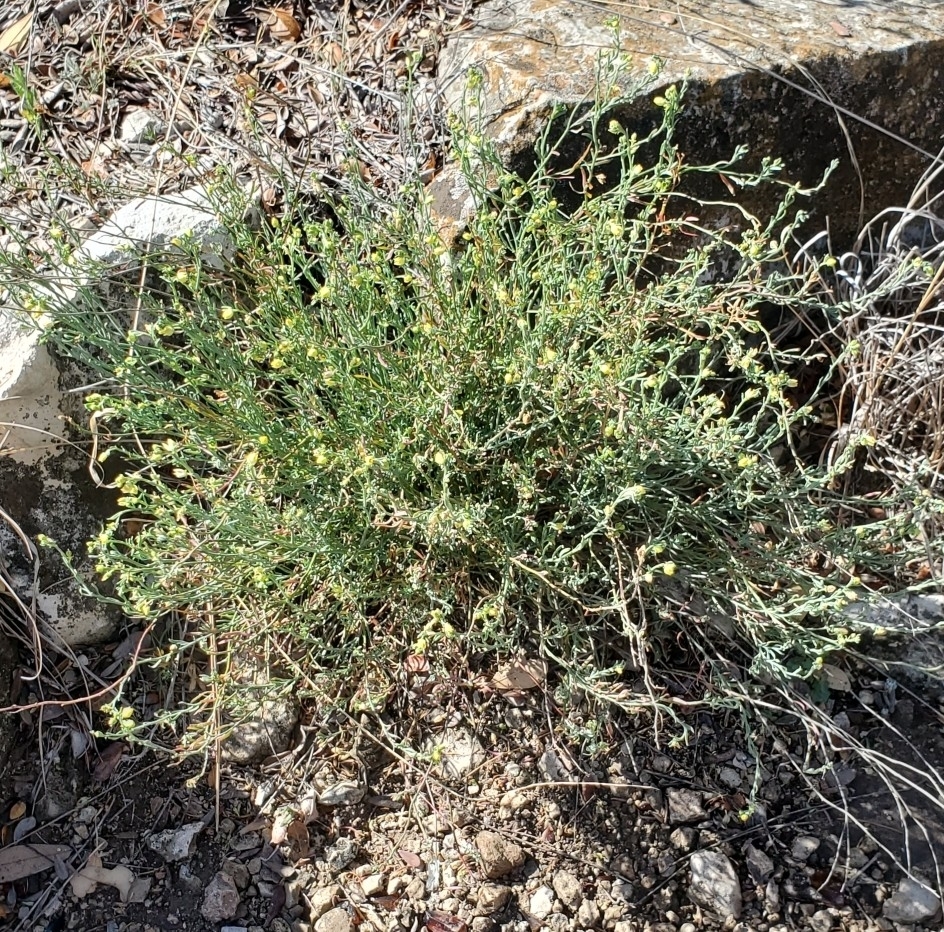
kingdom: Plantae
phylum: Tracheophyta
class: Magnoliopsida
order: Sapindales
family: Rutaceae
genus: Thamnosma
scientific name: Thamnosma texana
